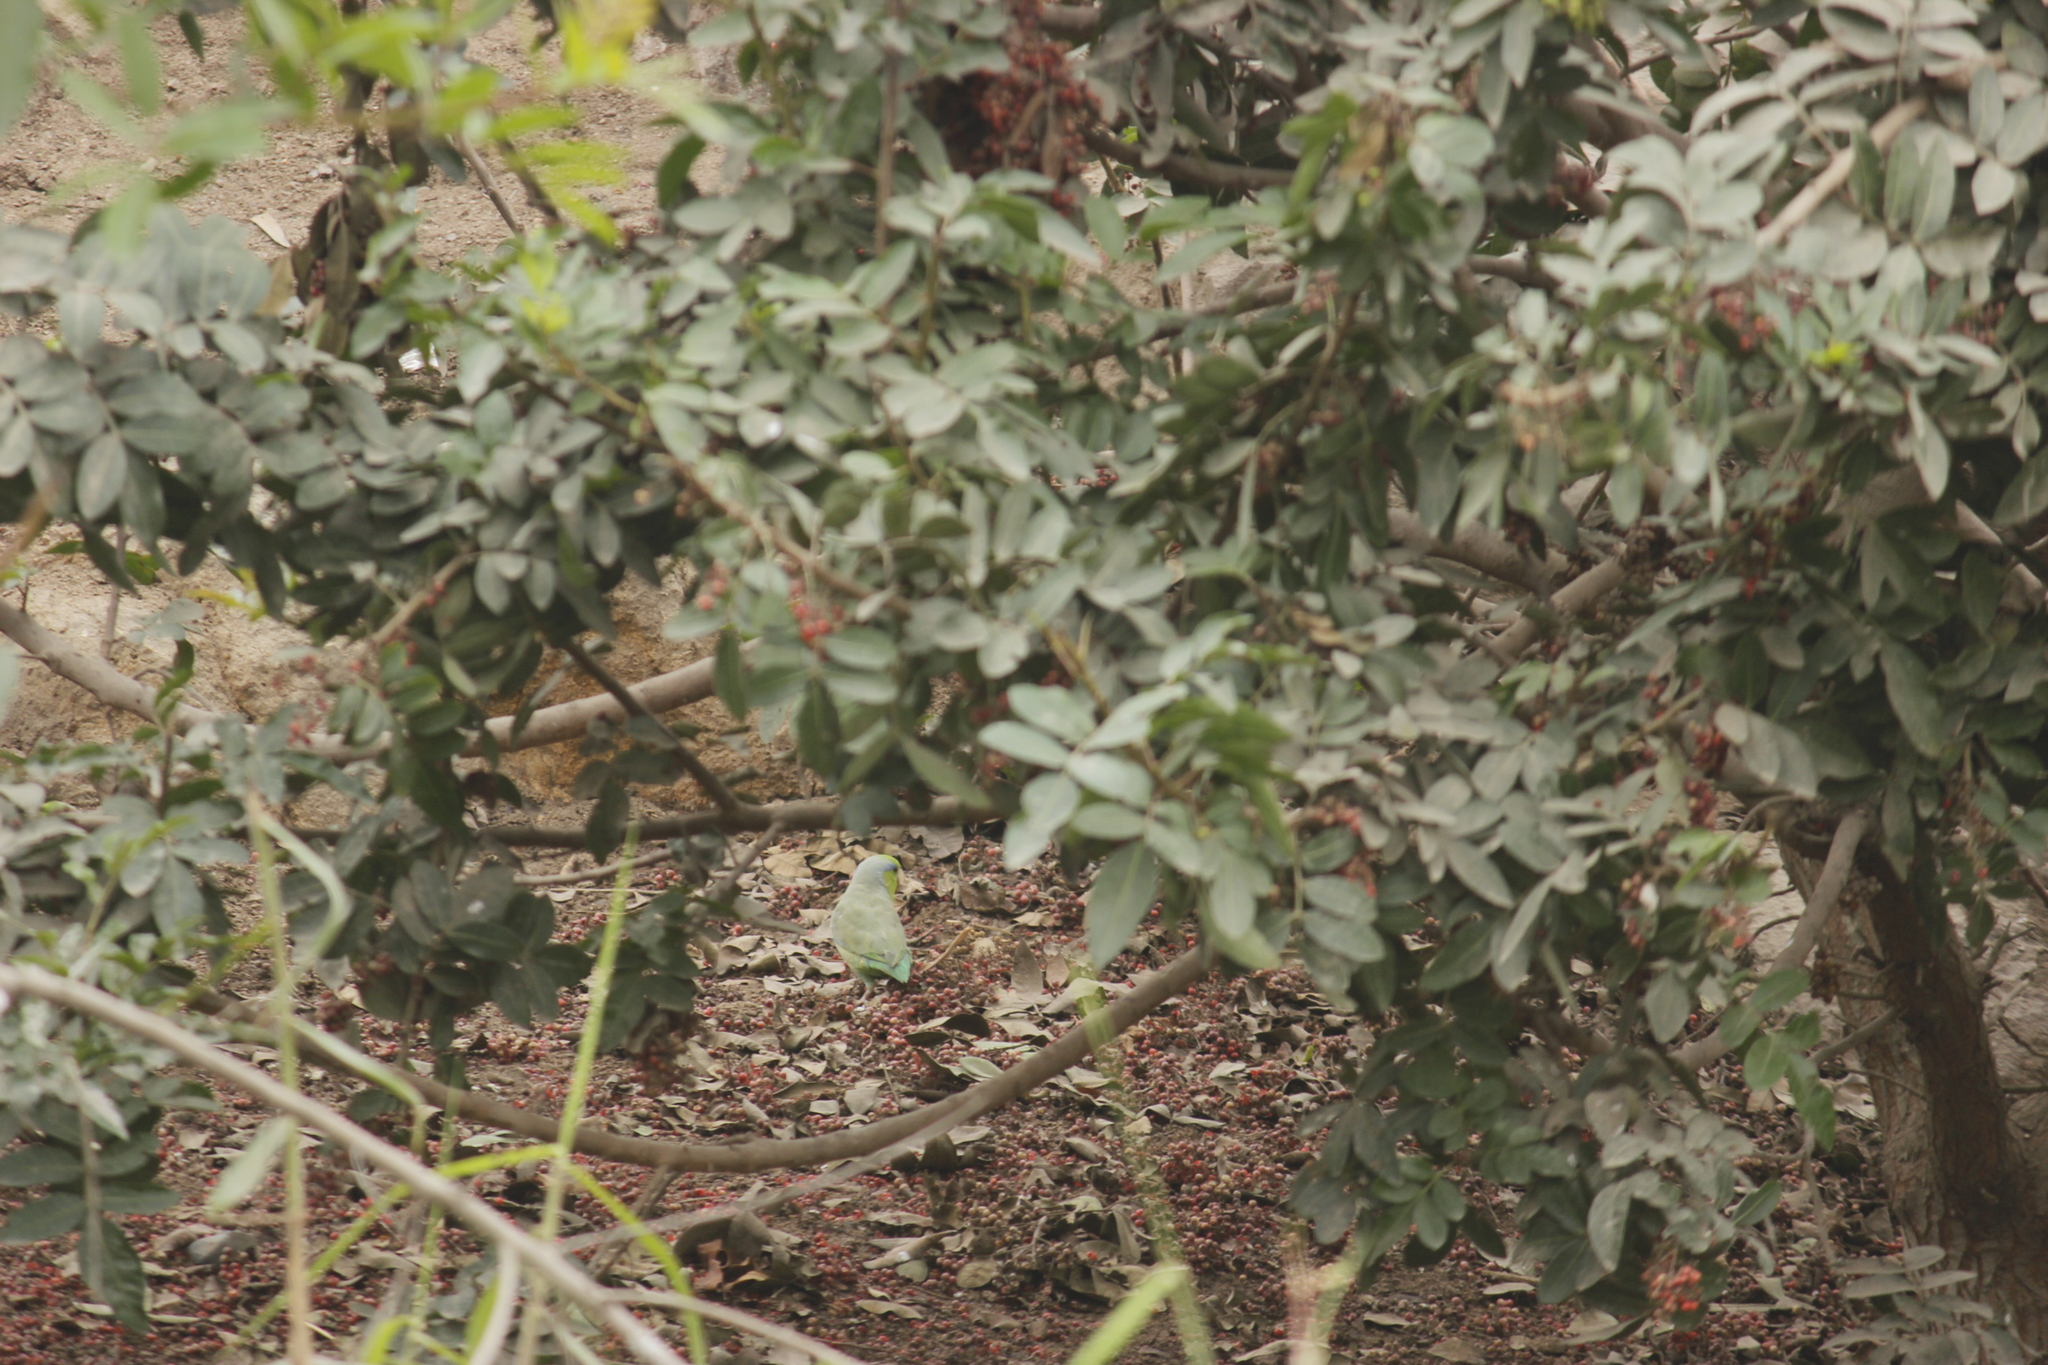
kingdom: Animalia
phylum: Chordata
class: Aves
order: Psittaciformes
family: Psittacidae
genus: Forpus
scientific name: Forpus coelestis
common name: Pacific parrotlet
